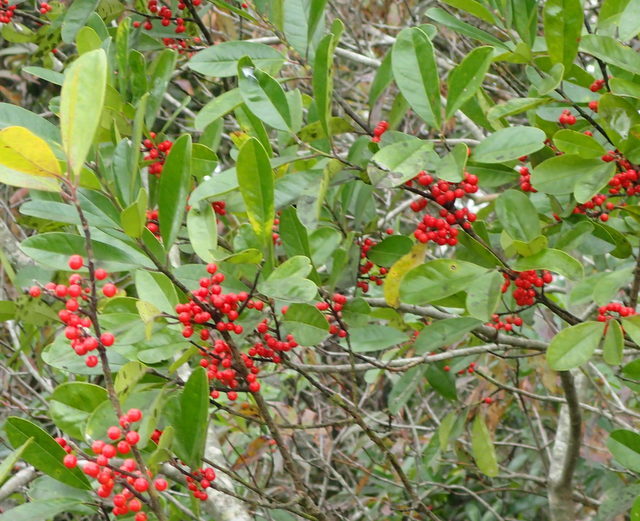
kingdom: Plantae
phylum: Tracheophyta
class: Magnoliopsida
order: Aquifoliales
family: Aquifoliaceae
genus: Ilex
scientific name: Ilex cassine
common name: Dahoon
